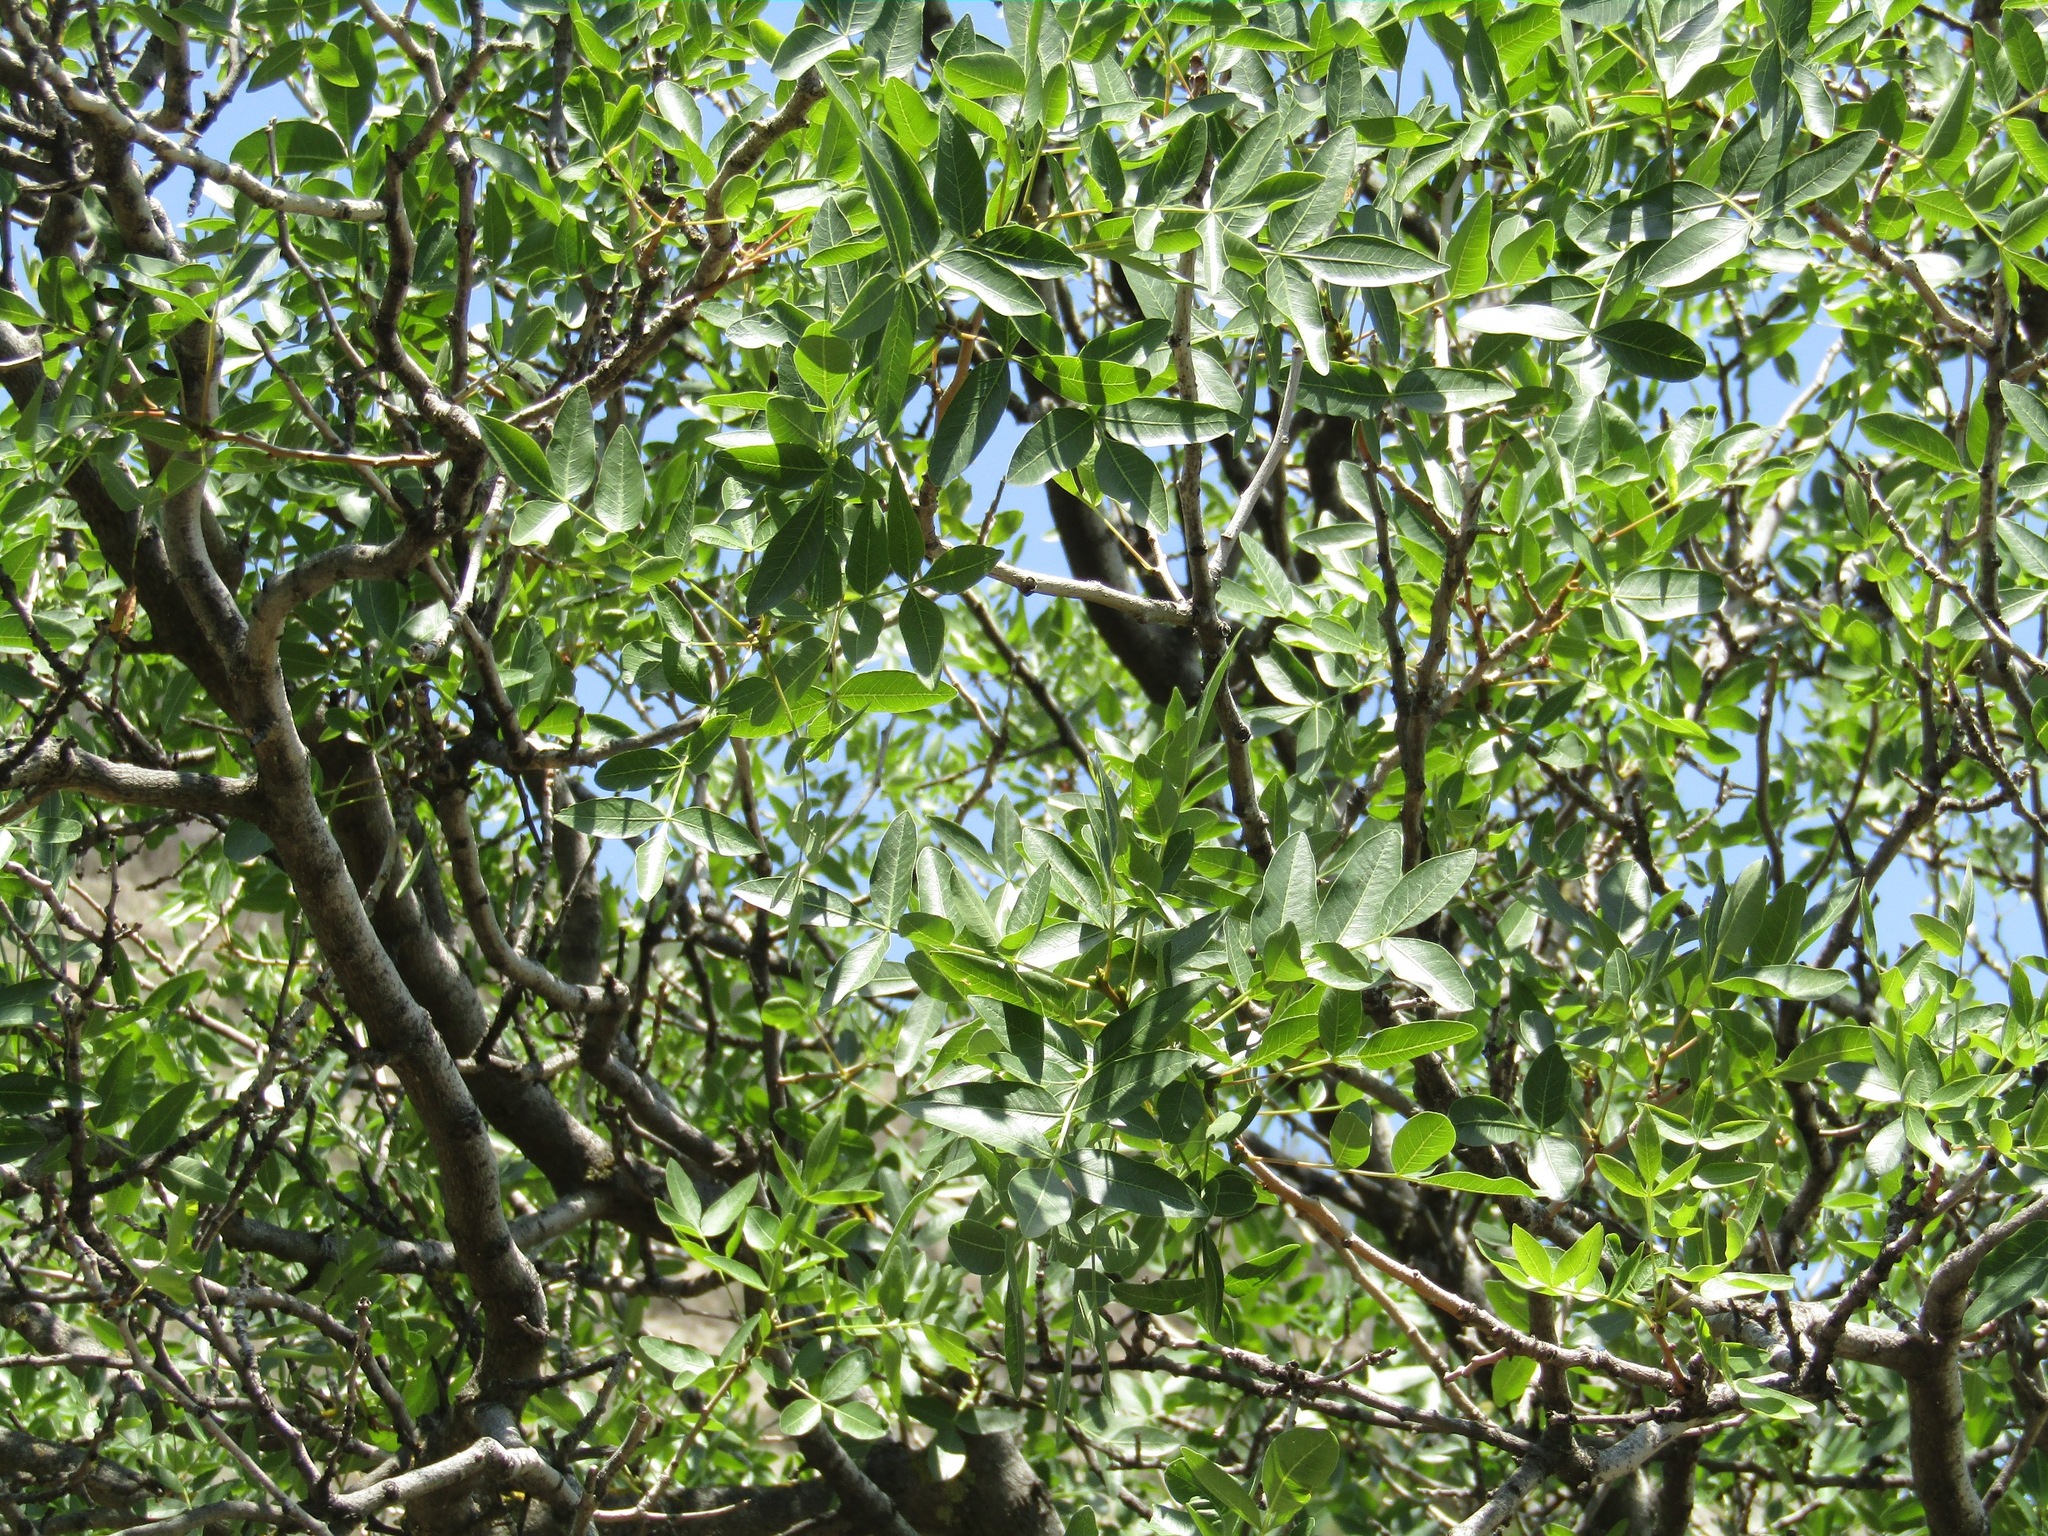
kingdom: Plantae
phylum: Tracheophyta
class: Magnoliopsida
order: Lamiales
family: Oleaceae
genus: Fraxinus
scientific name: Fraxinus angustifolia
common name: Narrow-leafed ash
